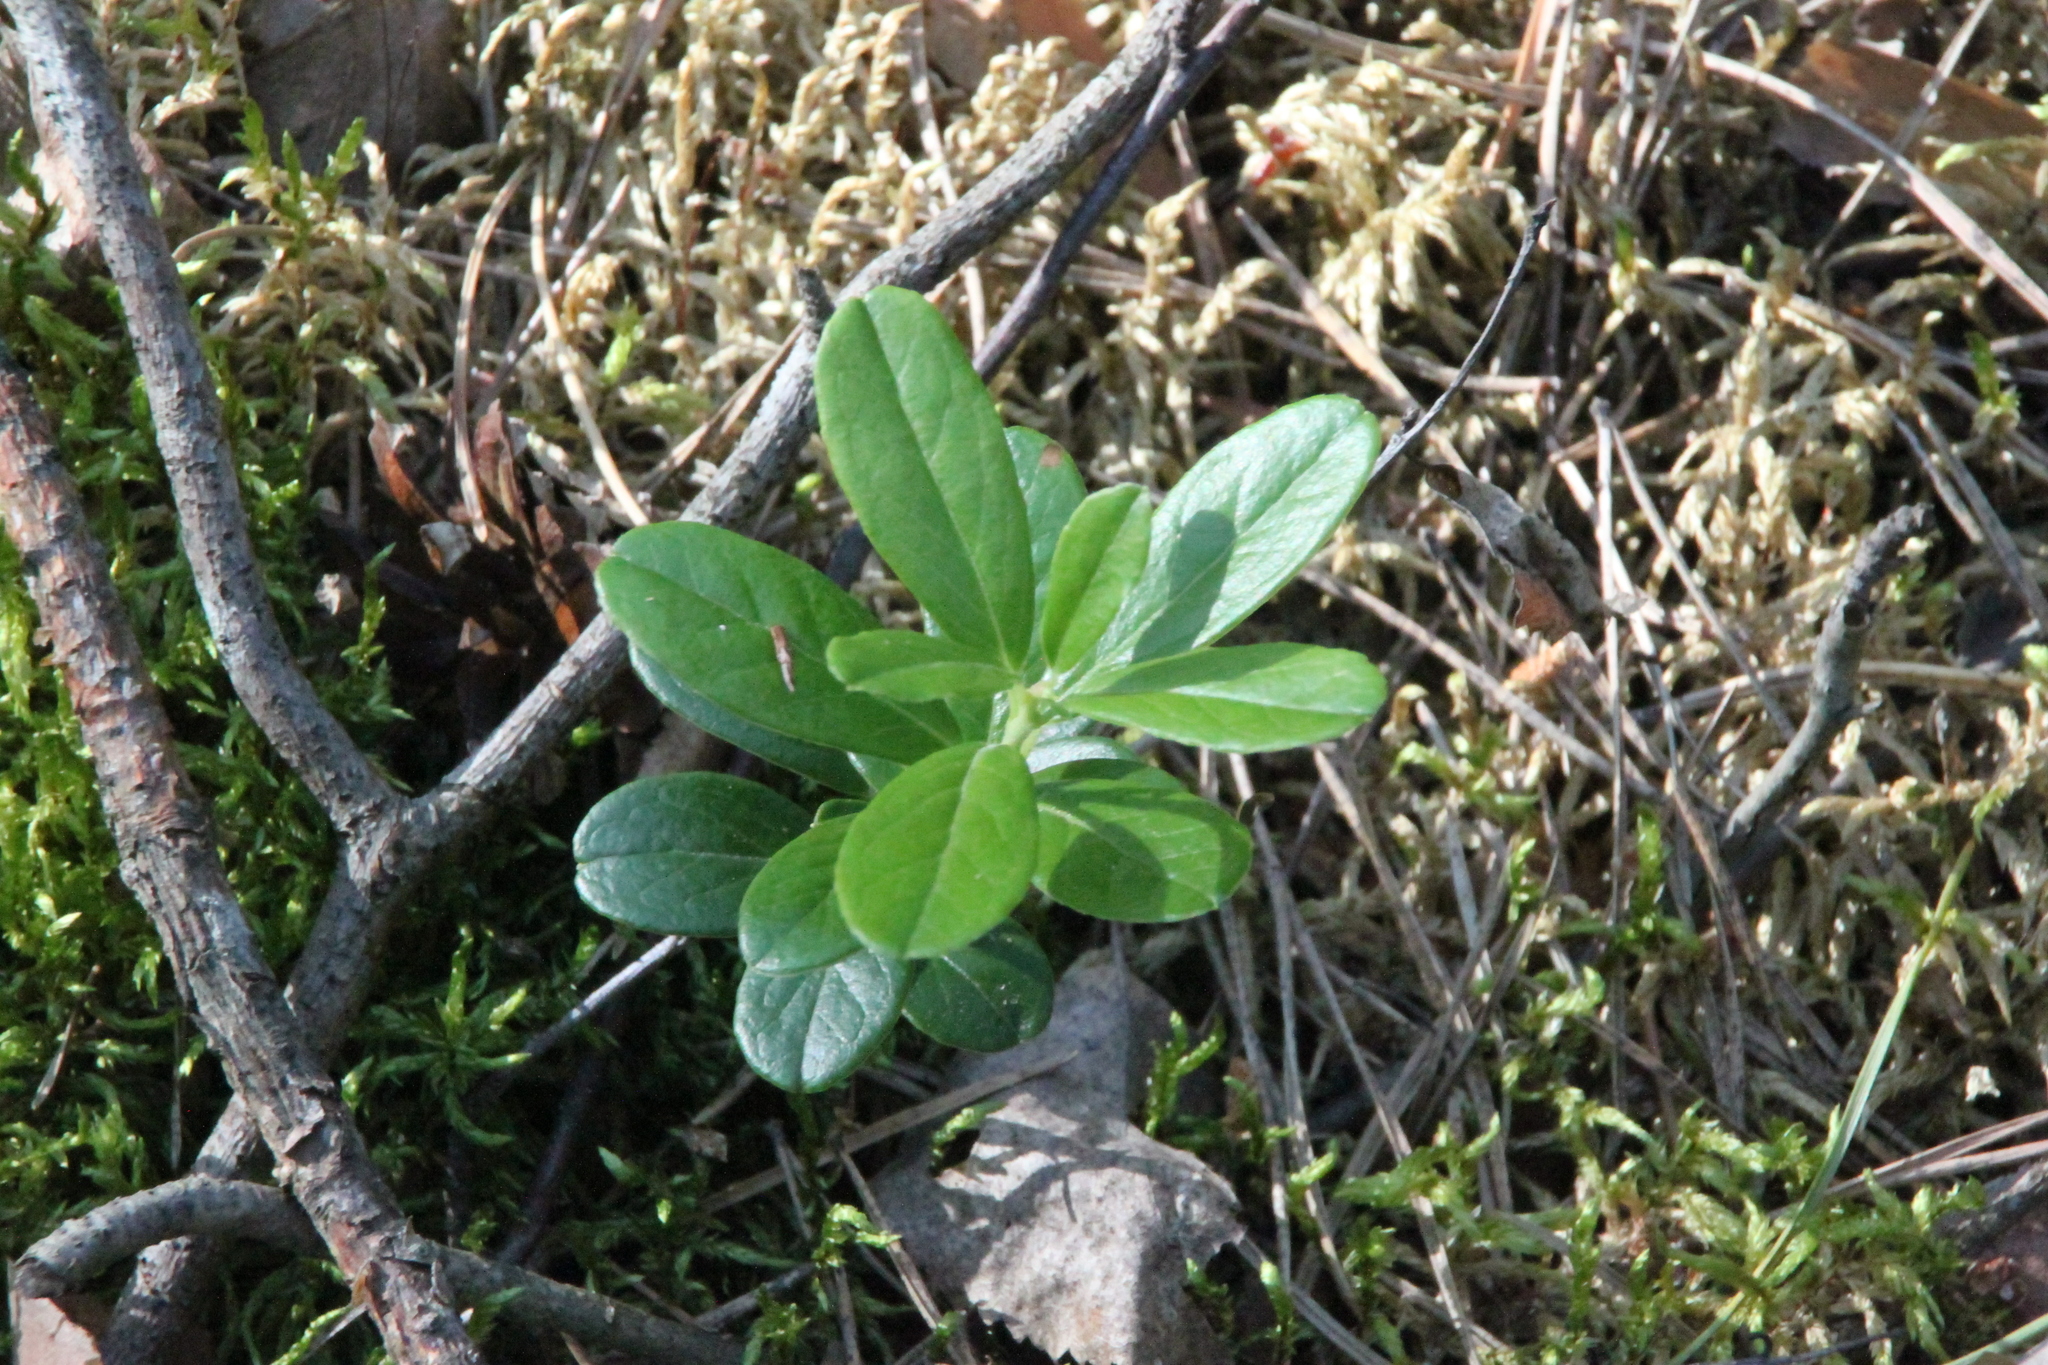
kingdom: Plantae
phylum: Tracheophyta
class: Magnoliopsida
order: Ericales
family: Ericaceae
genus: Vaccinium
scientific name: Vaccinium vitis-idaea
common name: Cowberry
